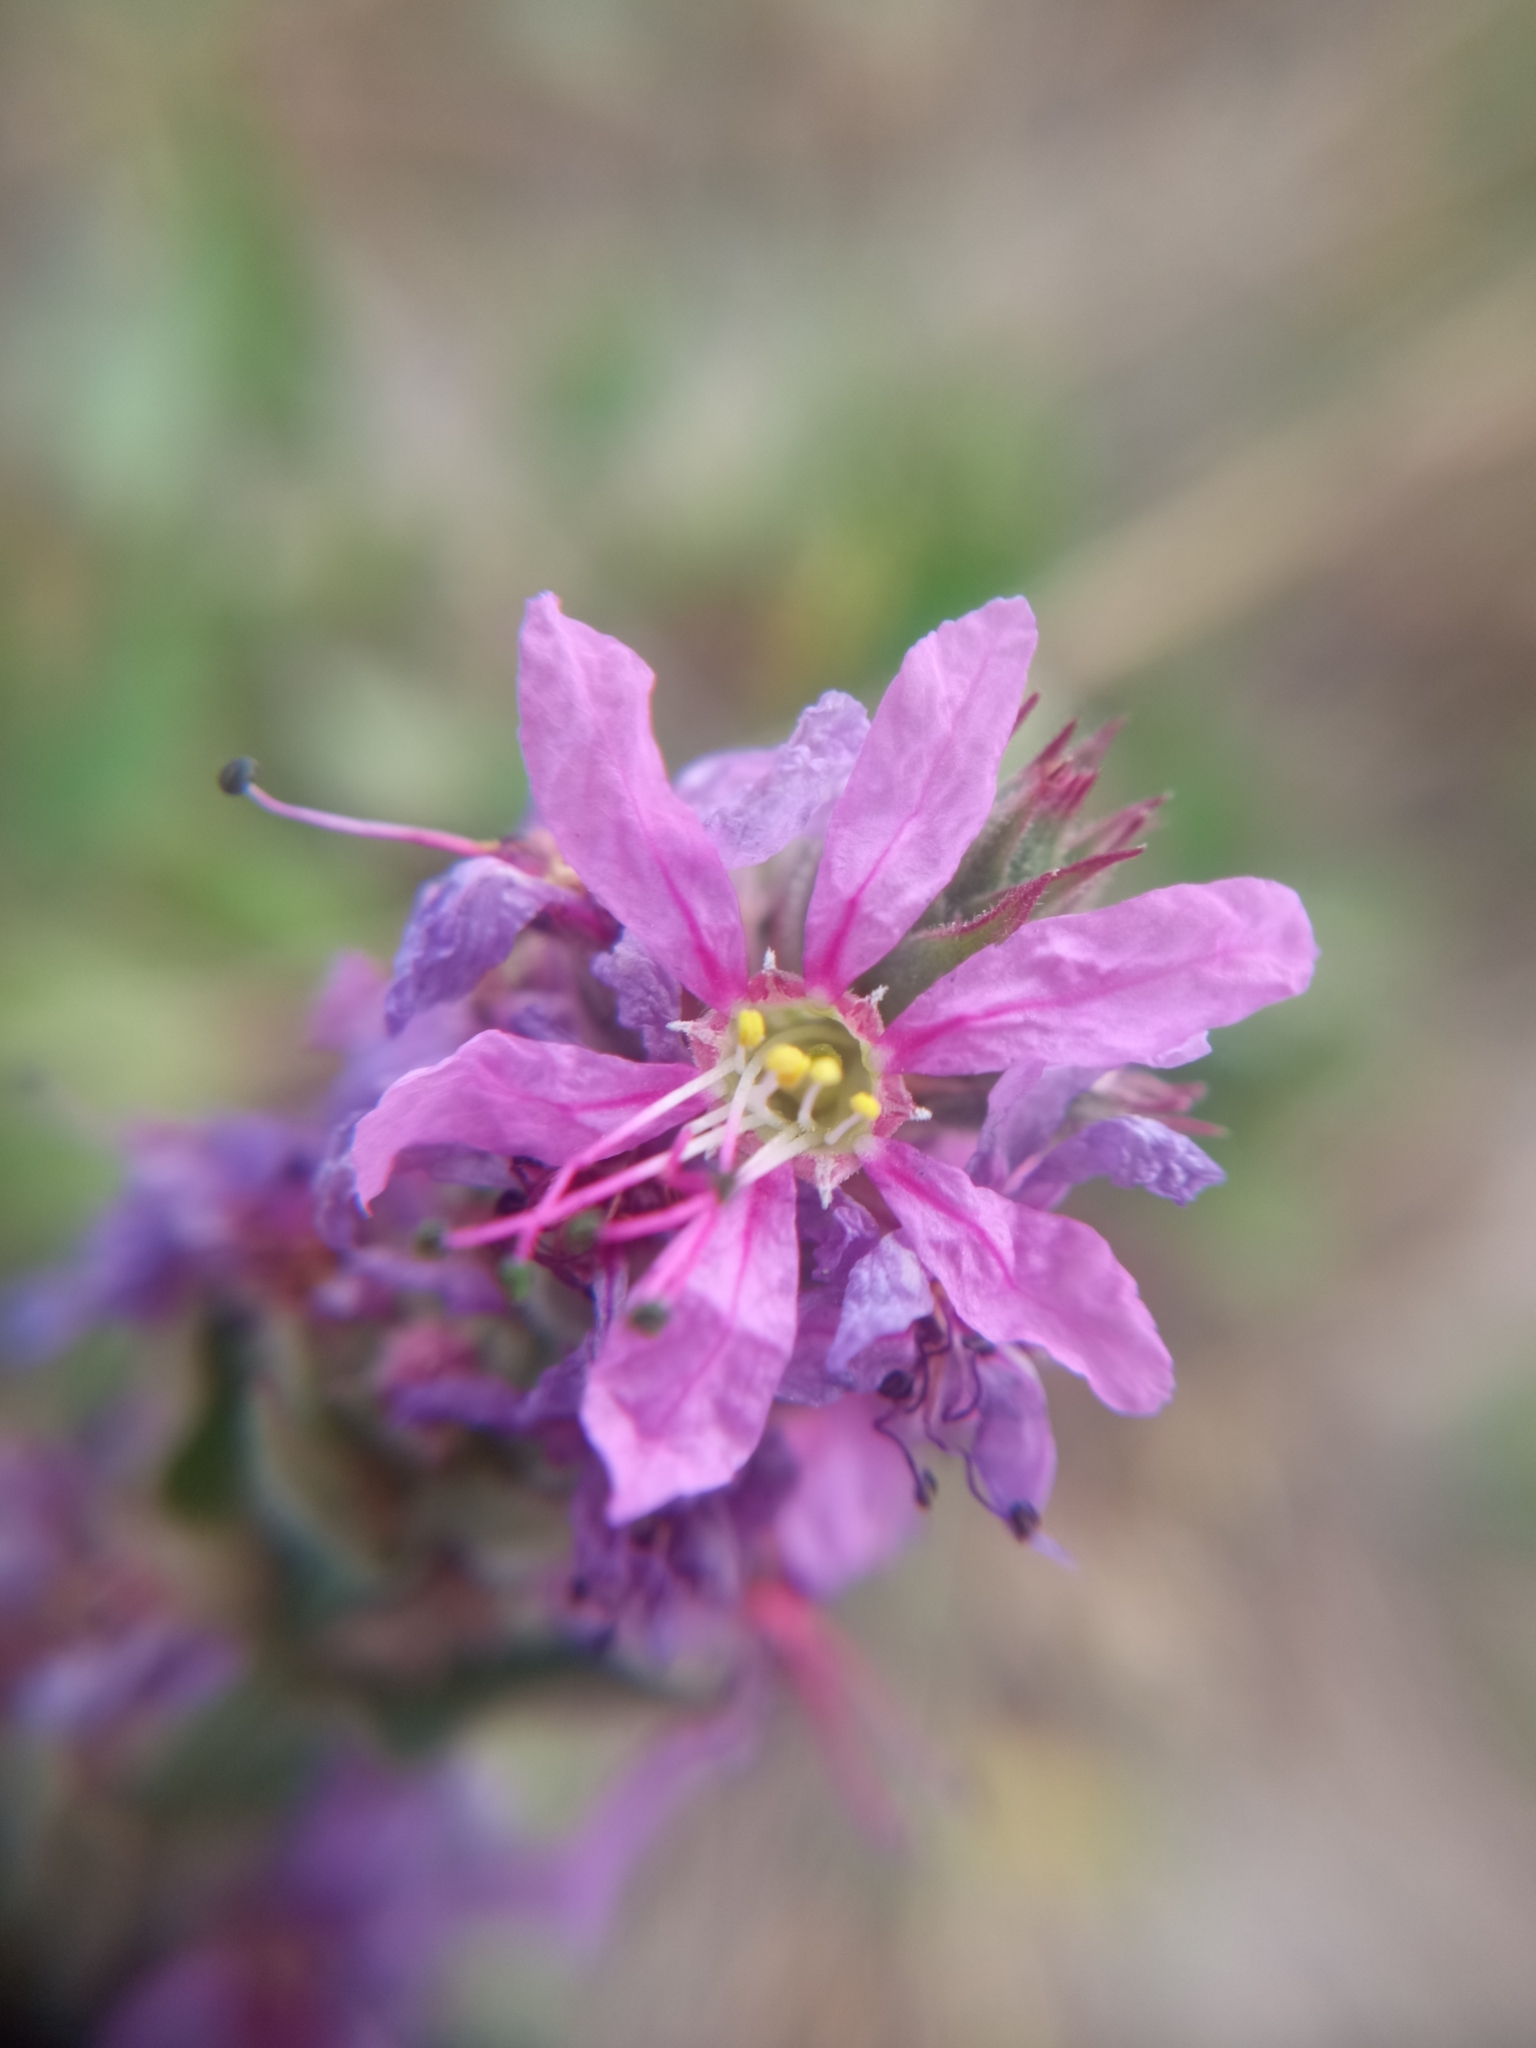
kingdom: Plantae
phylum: Tracheophyta
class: Magnoliopsida
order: Myrtales
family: Lythraceae
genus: Lythrum
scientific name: Lythrum salicaria
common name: Purple loosestrife
